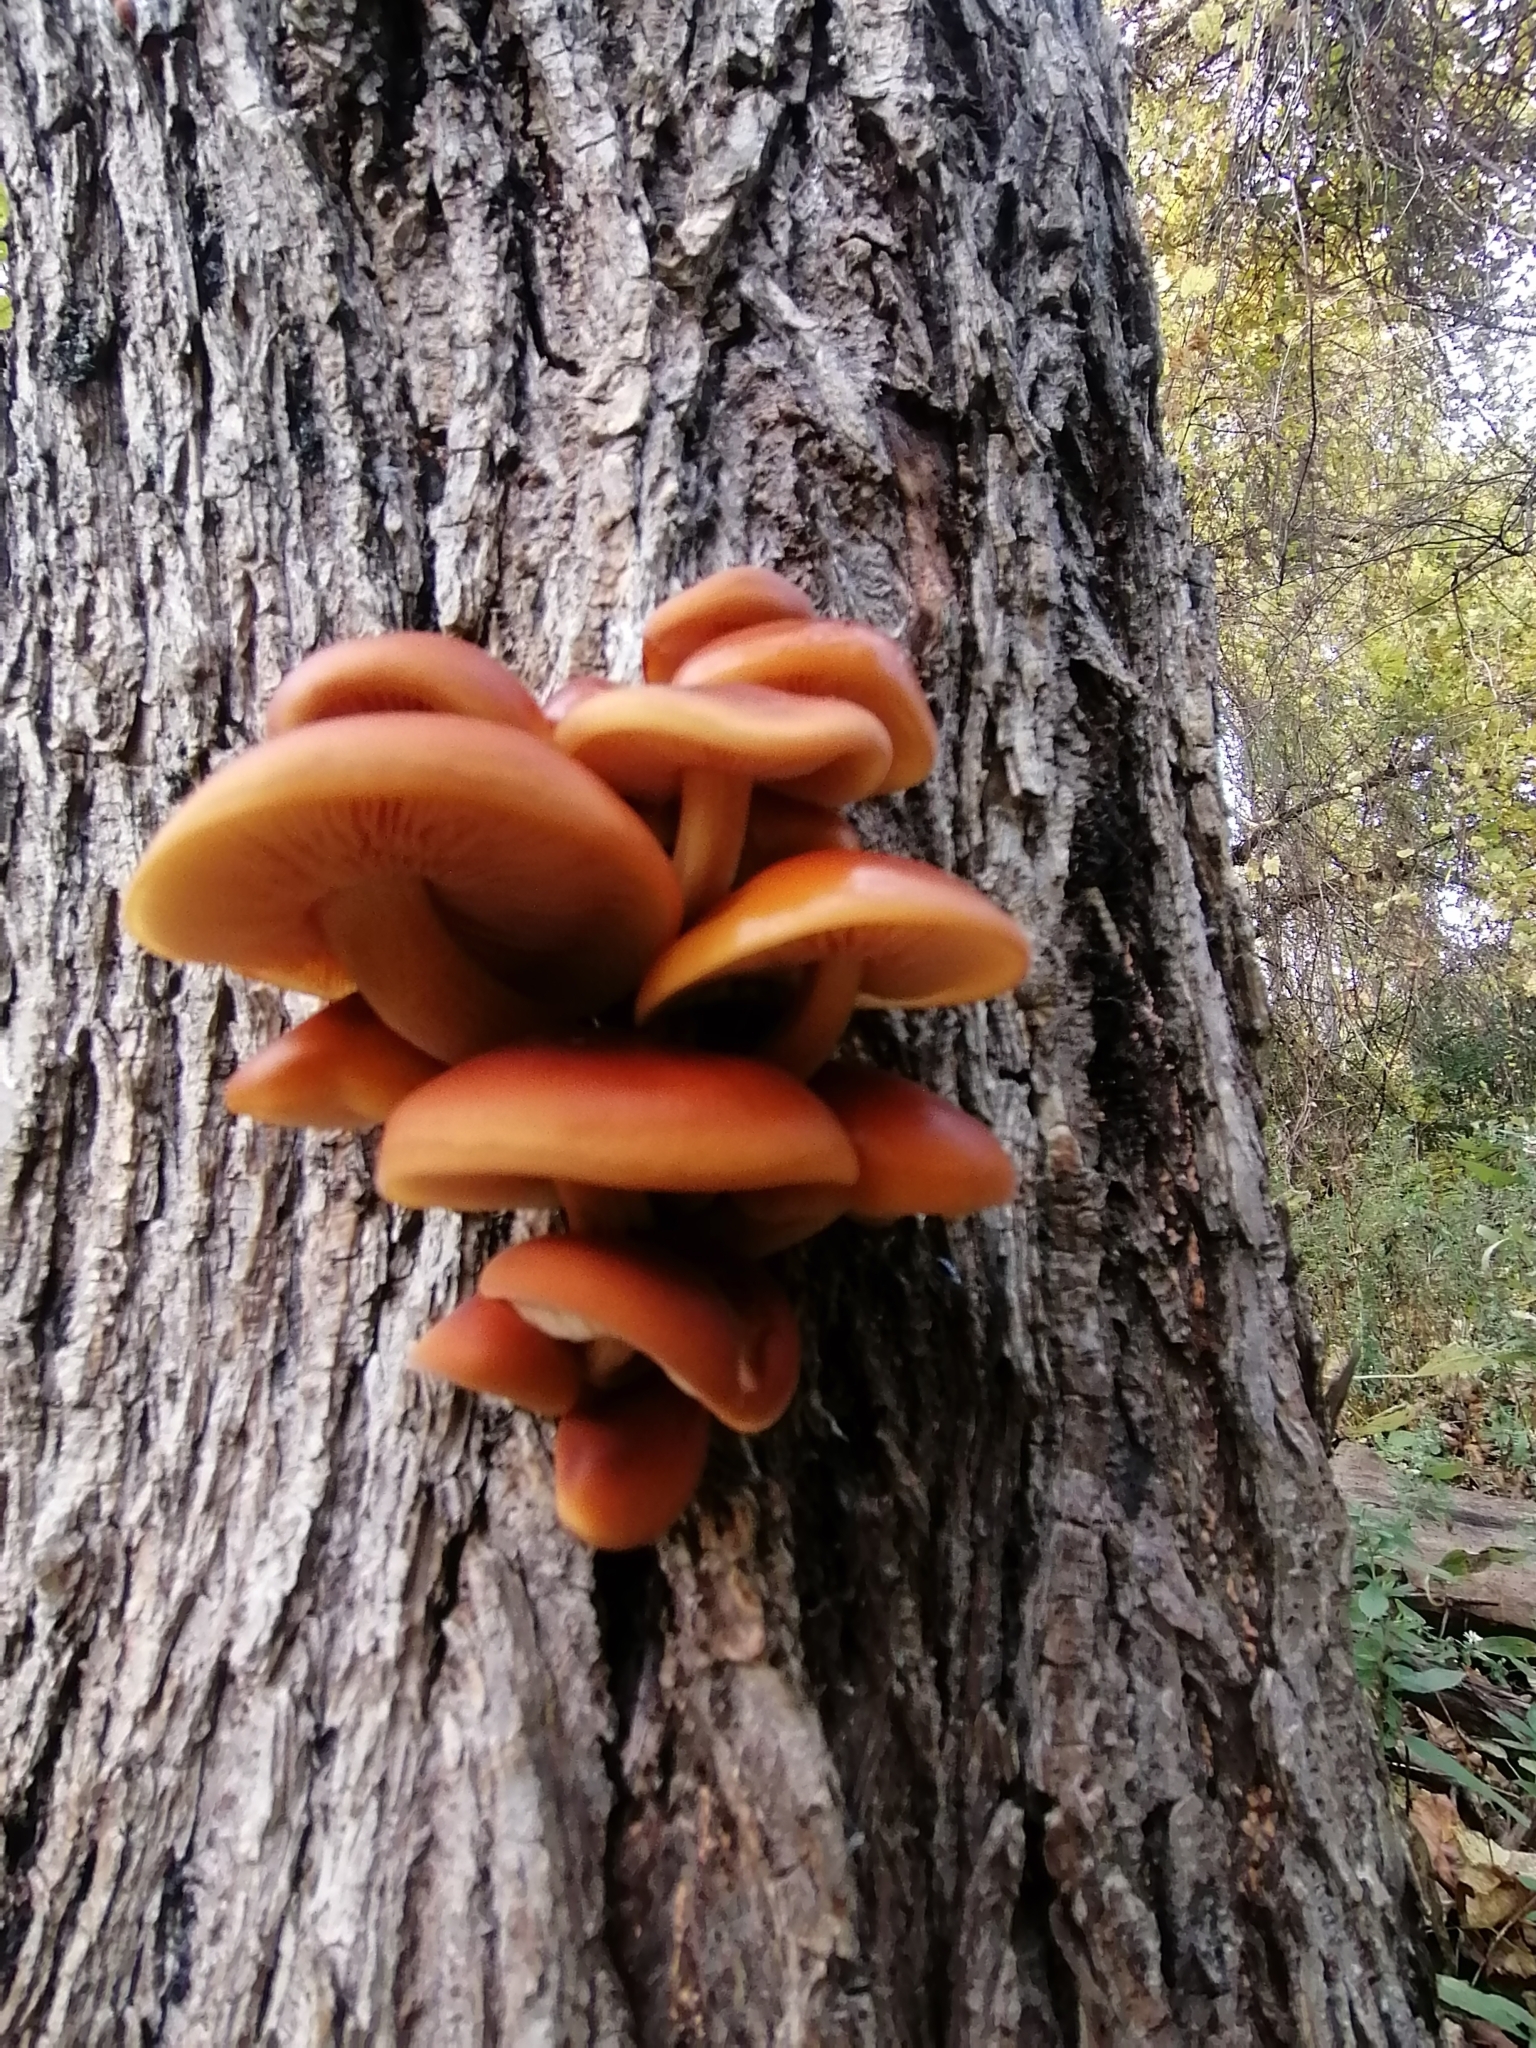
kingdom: Fungi
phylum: Basidiomycota
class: Agaricomycetes
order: Agaricales
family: Physalacriaceae
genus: Flammulina
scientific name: Flammulina velutipes
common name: Velvet shank
